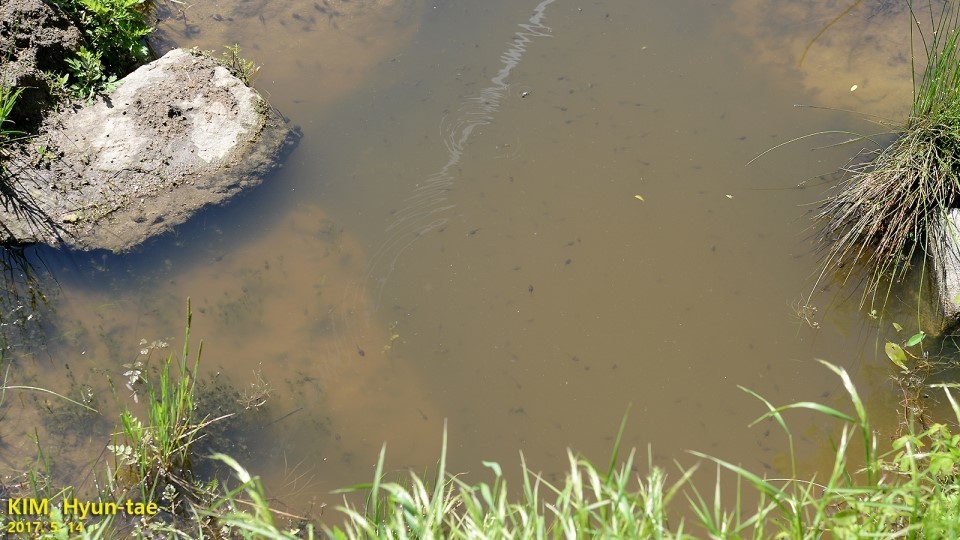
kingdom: Animalia
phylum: Chordata
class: Amphibia
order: Anura
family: Ranidae
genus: Rana
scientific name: Rana uenoi
